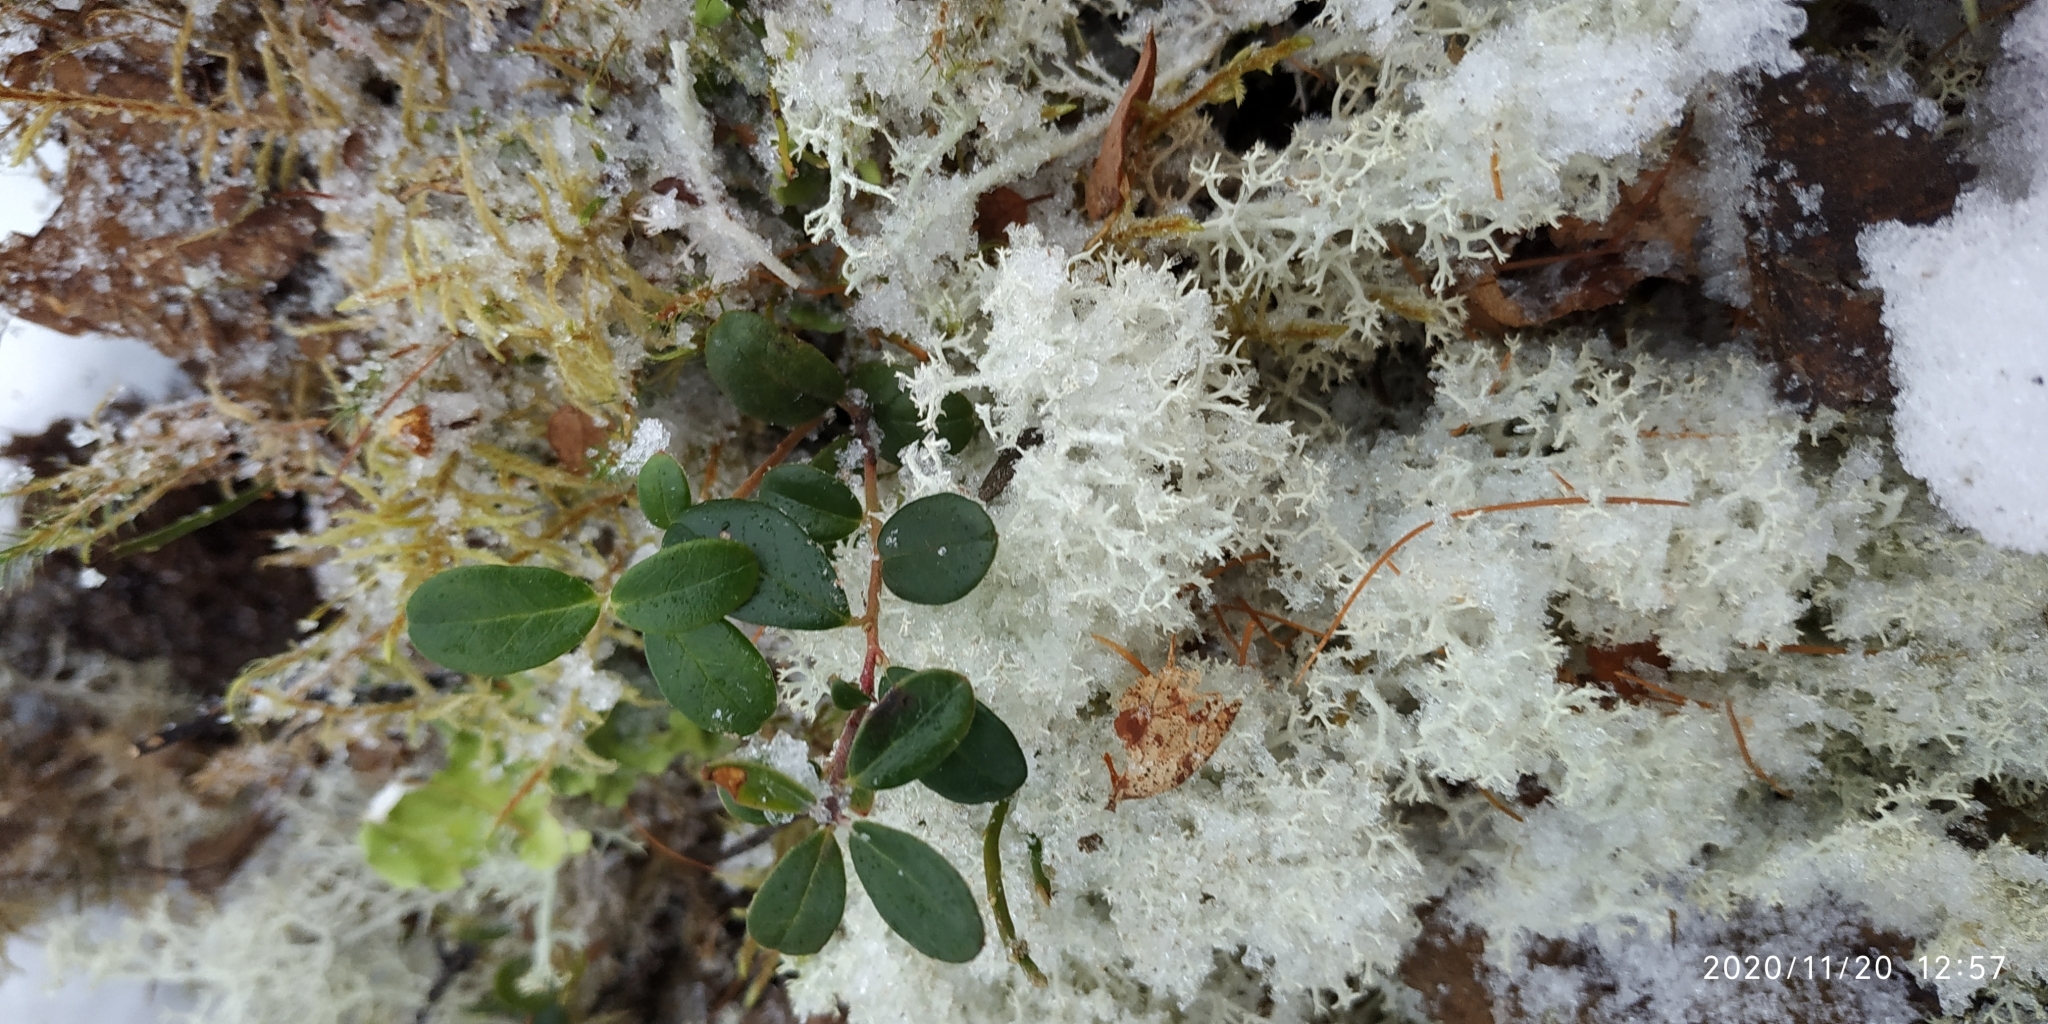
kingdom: Plantae
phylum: Tracheophyta
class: Magnoliopsida
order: Ericales
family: Ericaceae
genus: Vaccinium
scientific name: Vaccinium vitis-idaea
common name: Cowberry
